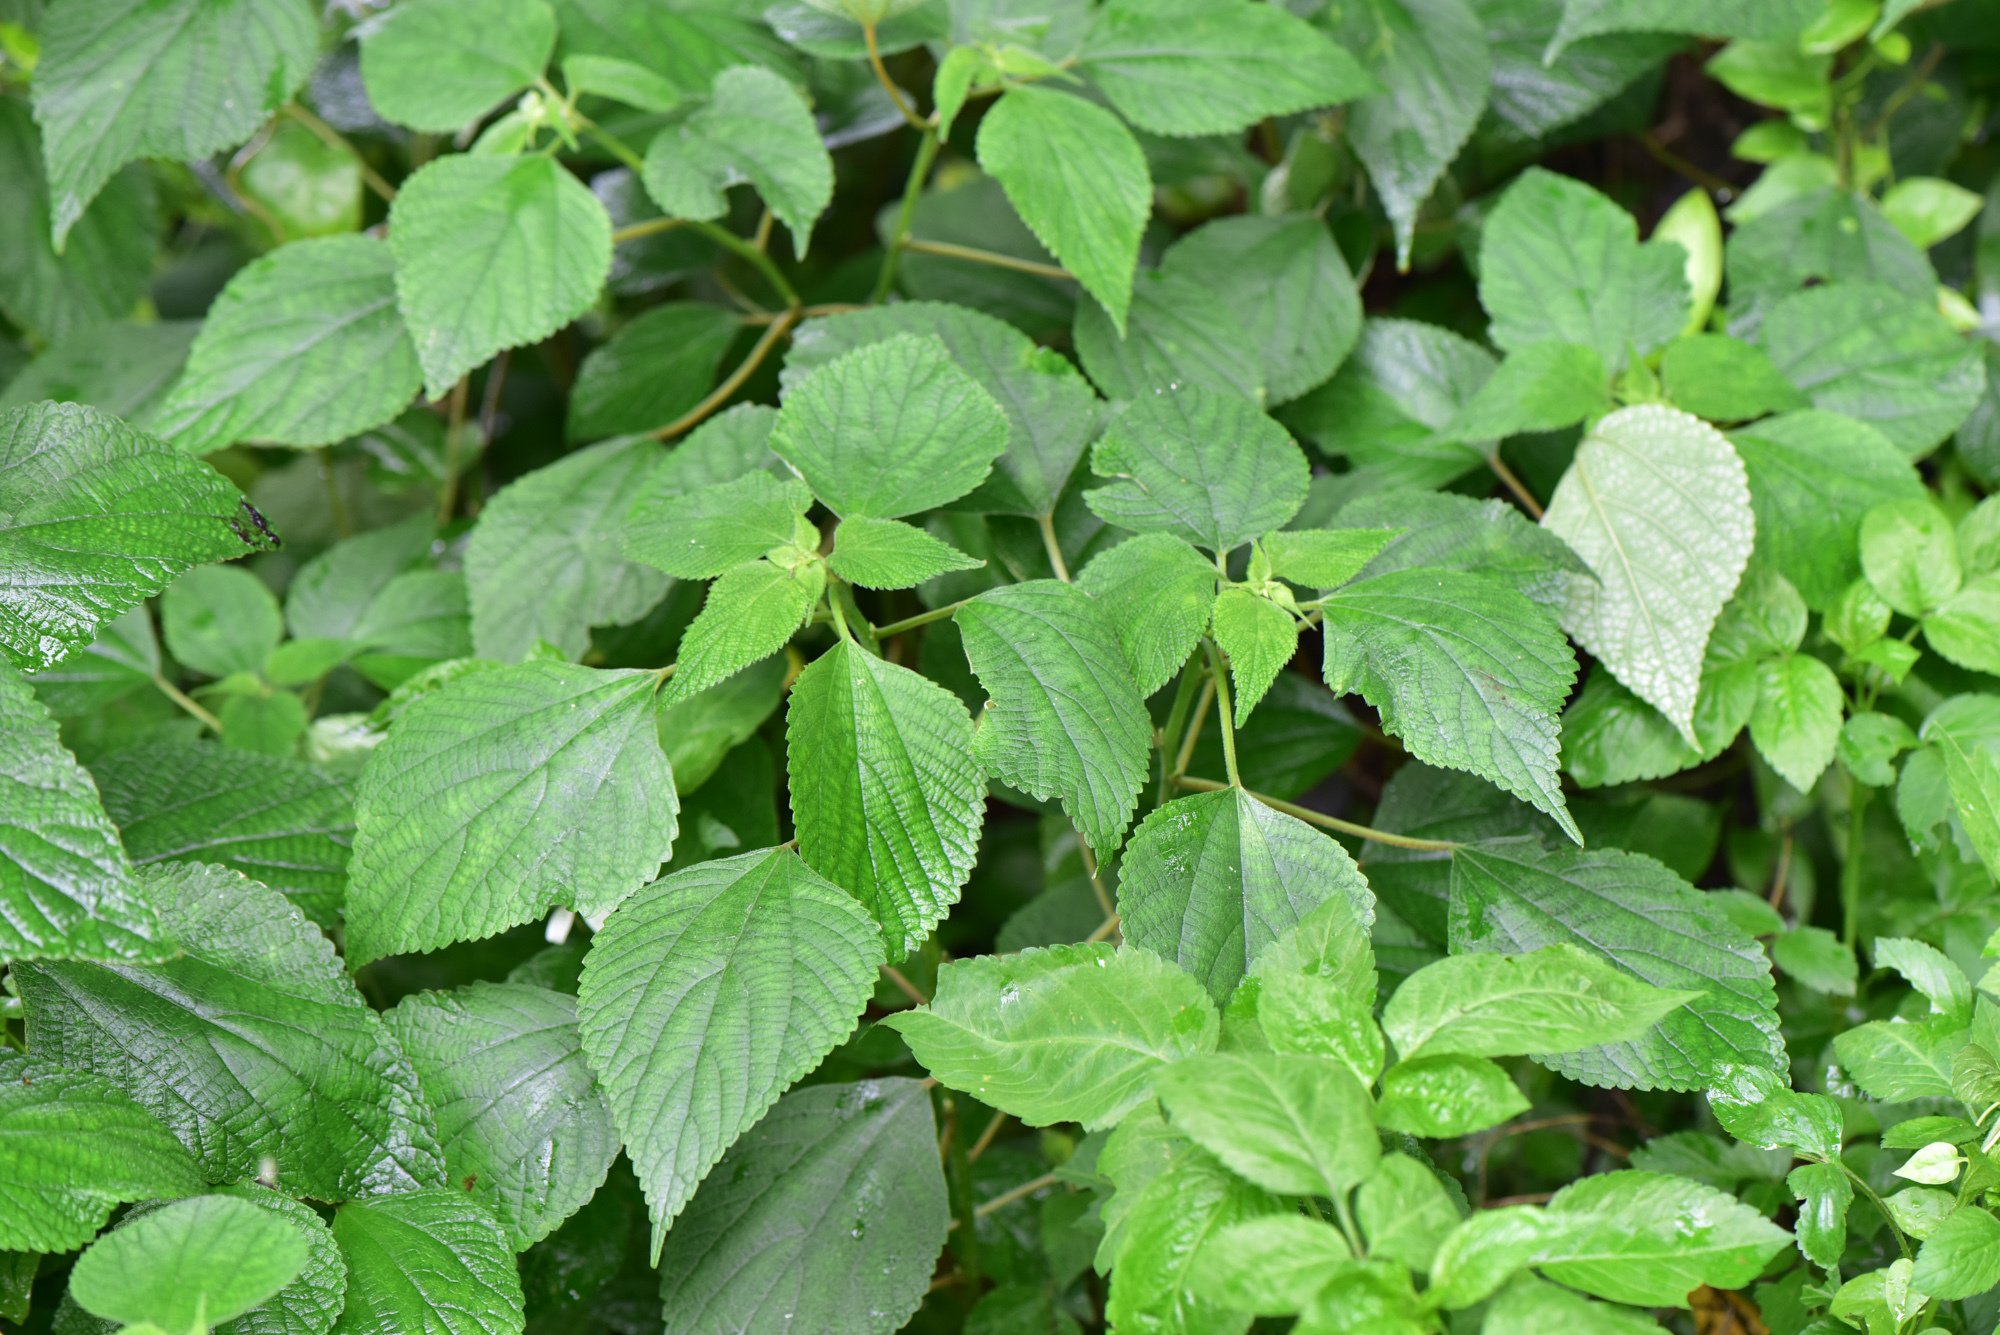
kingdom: Plantae
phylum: Tracheophyta
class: Magnoliopsida
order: Rosales
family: Urticaceae
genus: Boehmeria
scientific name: Boehmeria nivea
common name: Ramie chinese grass
